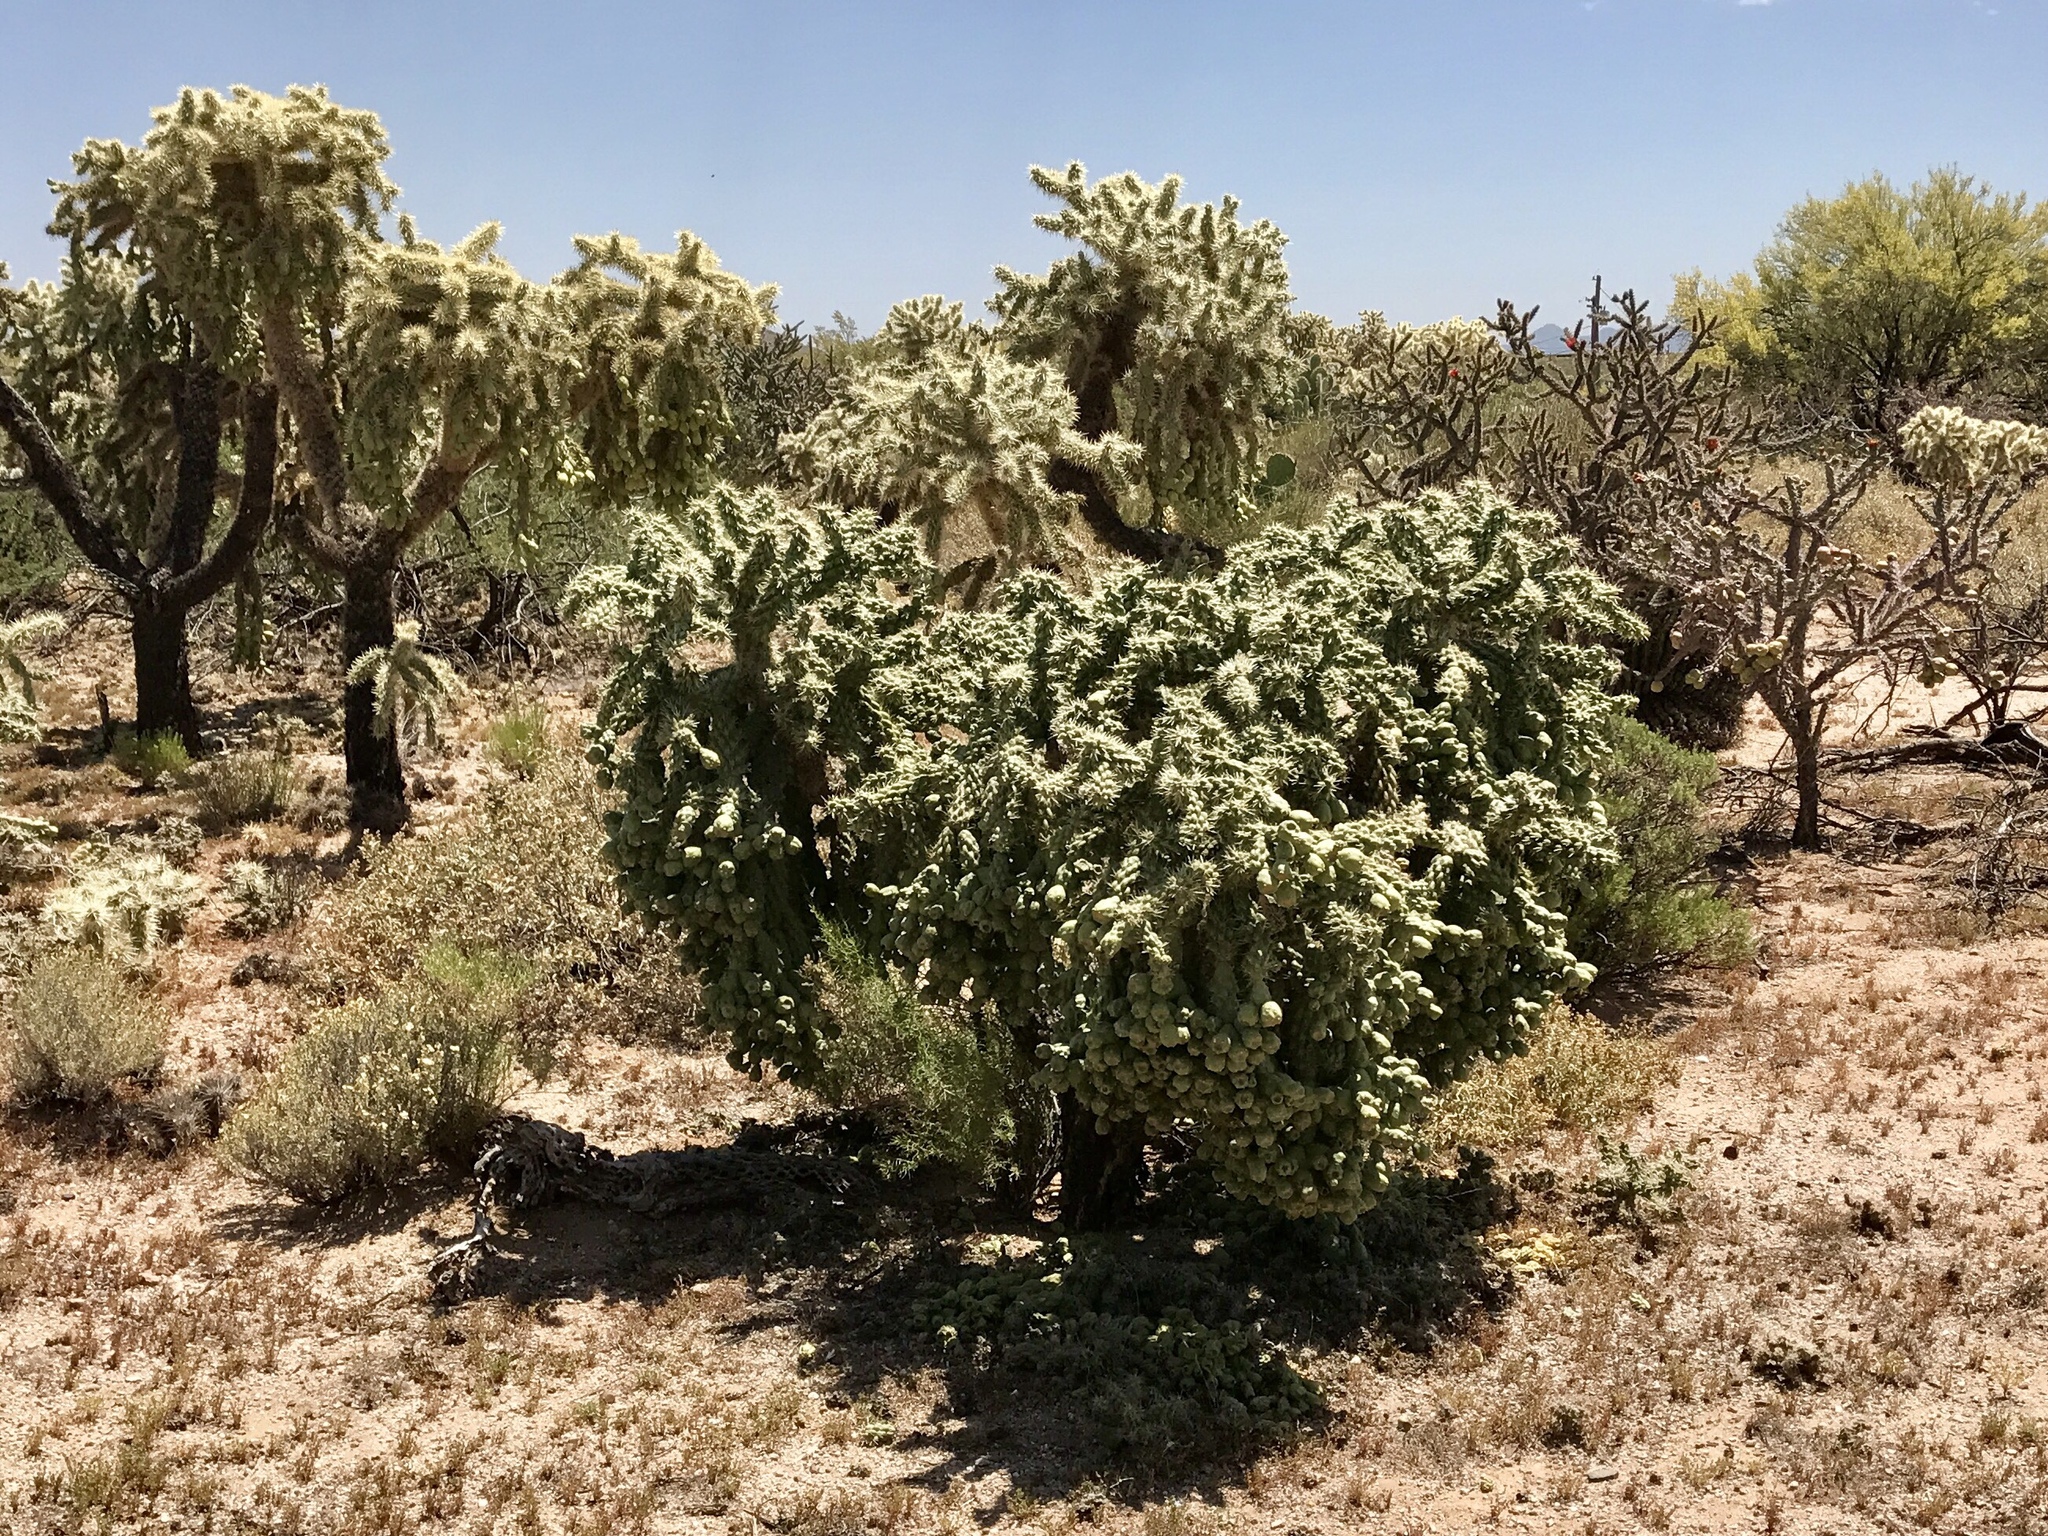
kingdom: Plantae
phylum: Tracheophyta
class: Magnoliopsida
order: Caryophyllales
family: Cactaceae
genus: Cylindropuntia
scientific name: Cylindropuntia fulgida
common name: Jumping cholla
